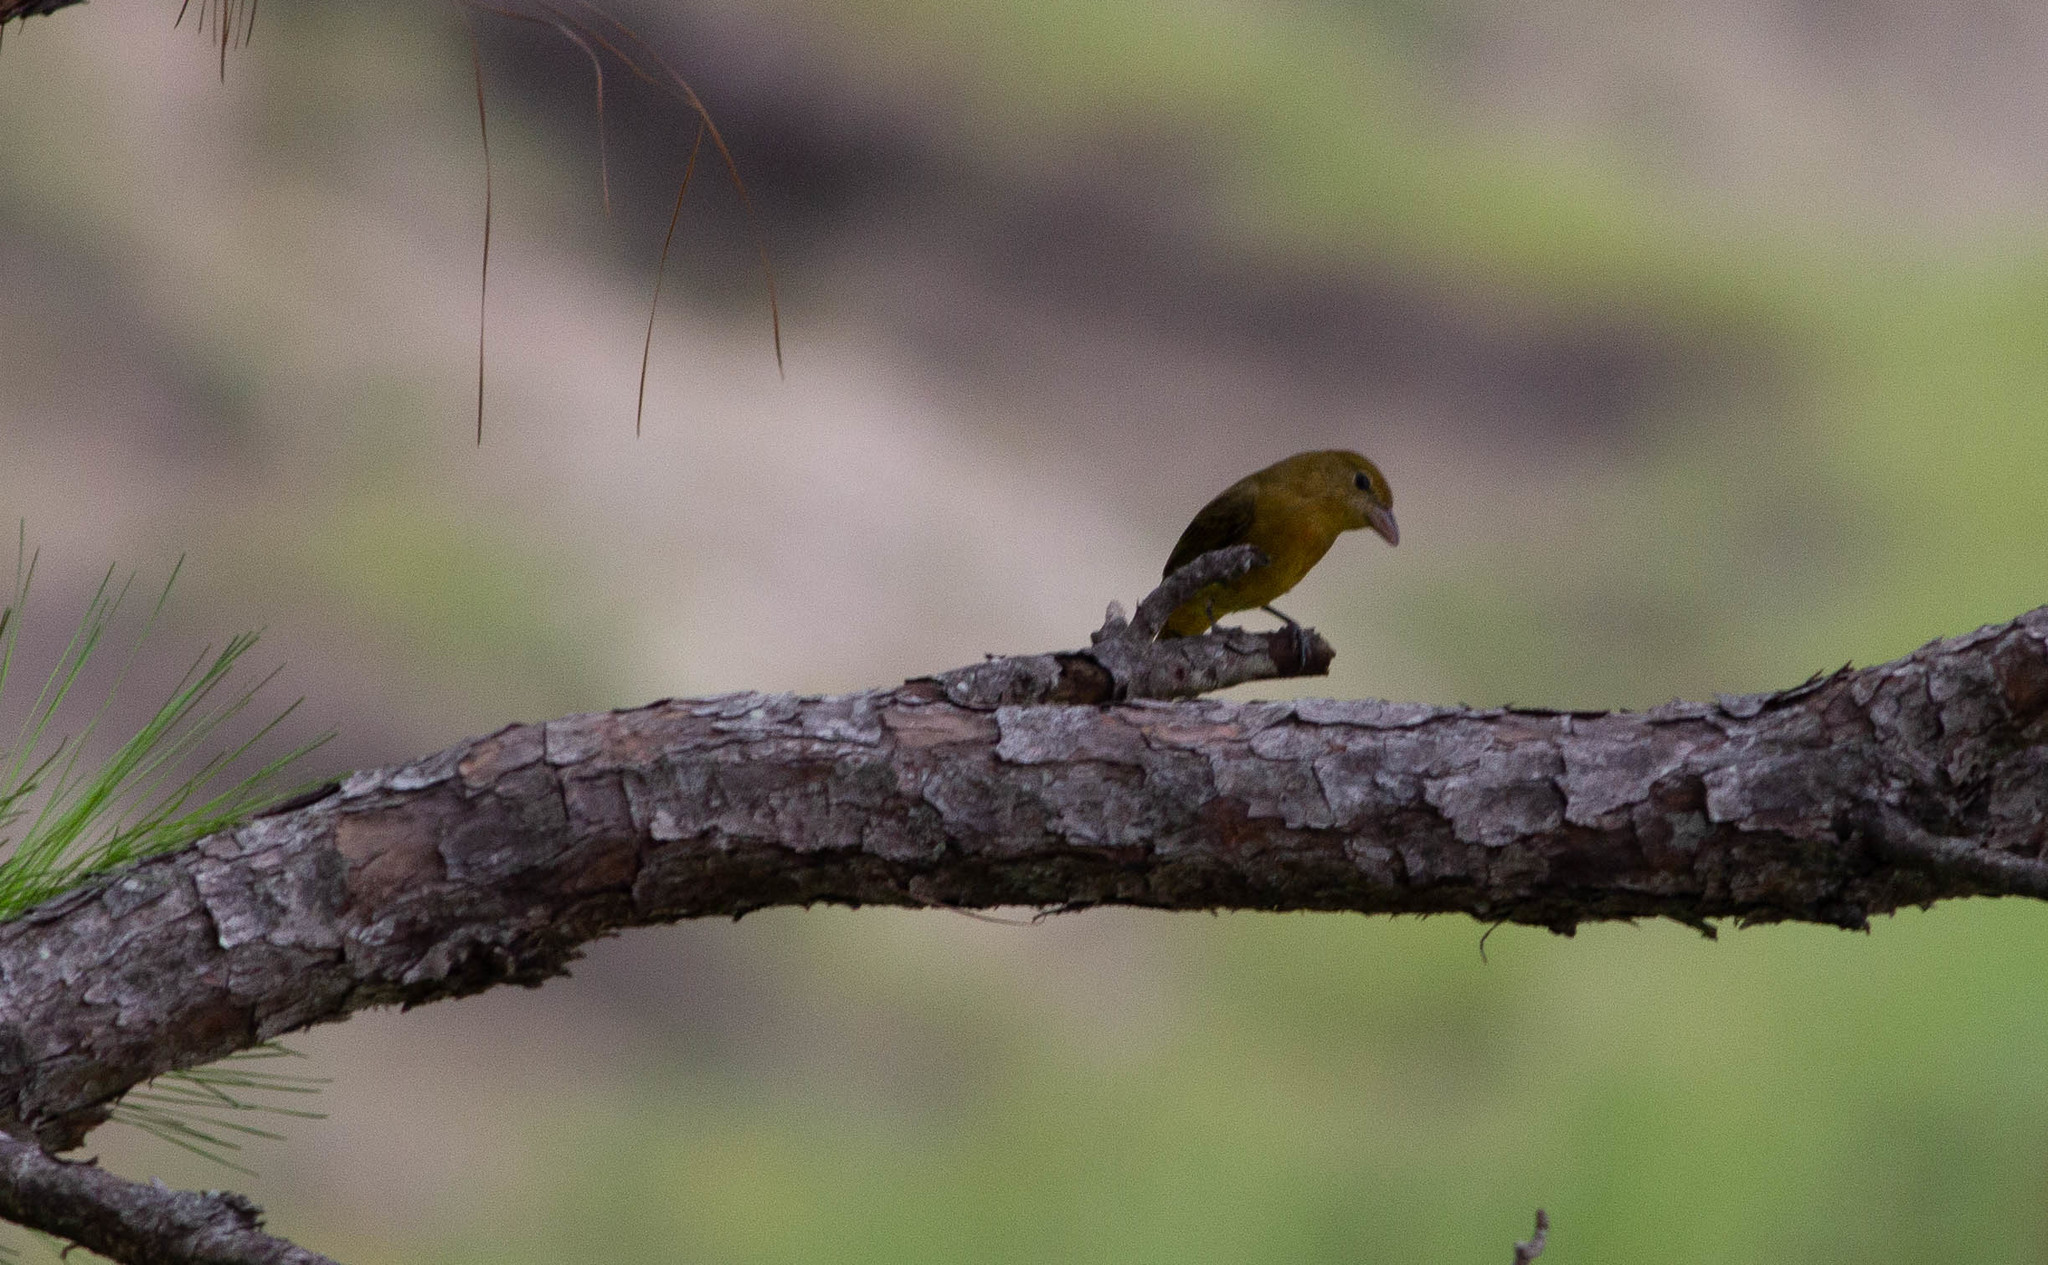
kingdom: Animalia
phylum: Chordata
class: Aves
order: Passeriformes
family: Cardinalidae
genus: Piranga
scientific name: Piranga rubra
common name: Summer tanager
